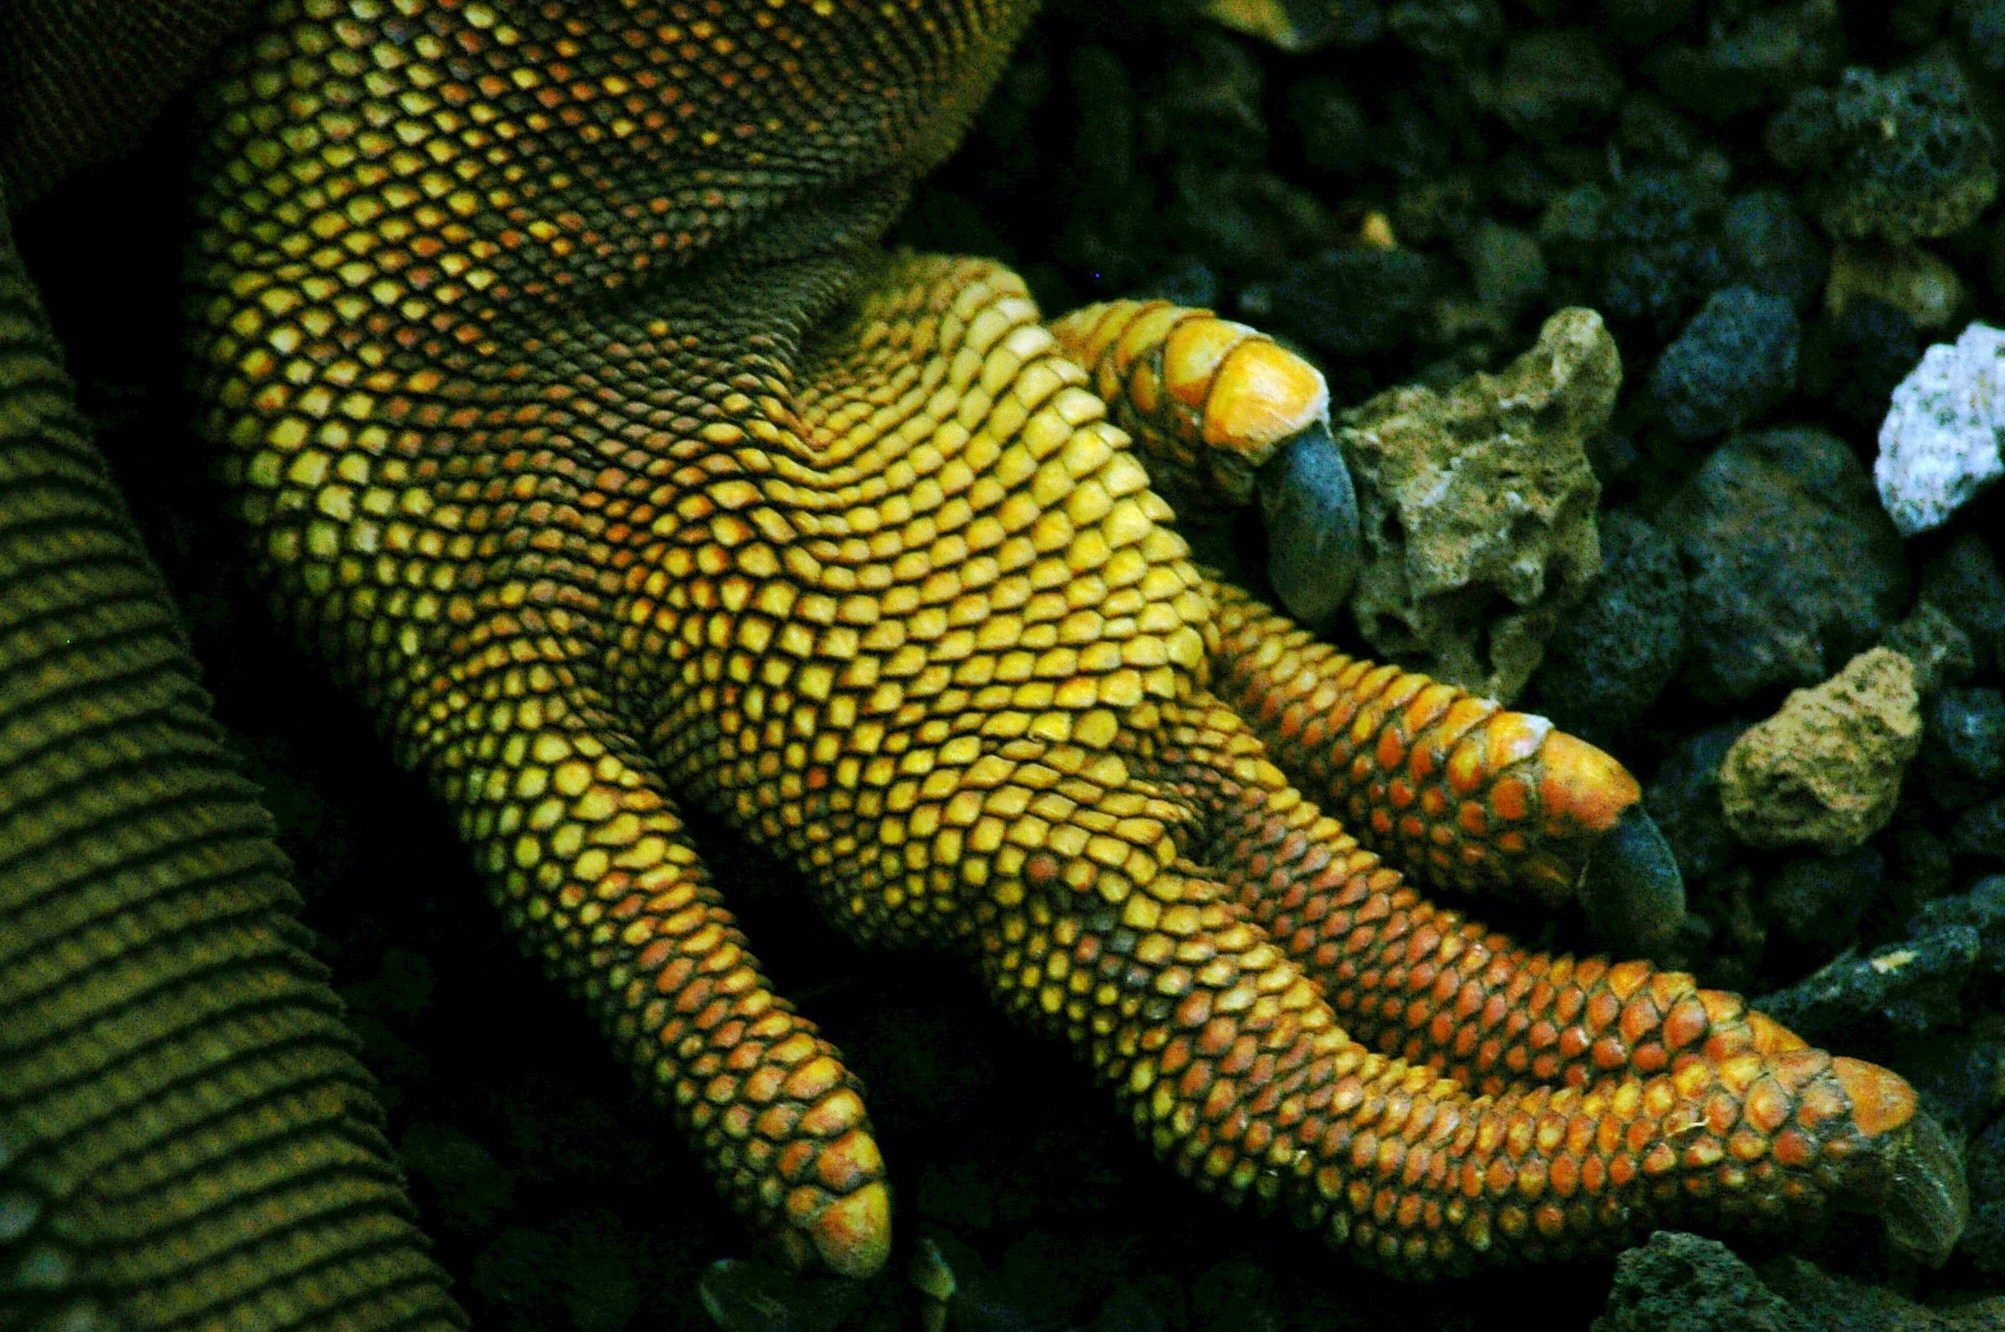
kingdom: Animalia
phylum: Chordata
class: Squamata
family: Iguanidae
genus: Conolophus
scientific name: Conolophus subcristatus
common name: Galapagos land iguana
